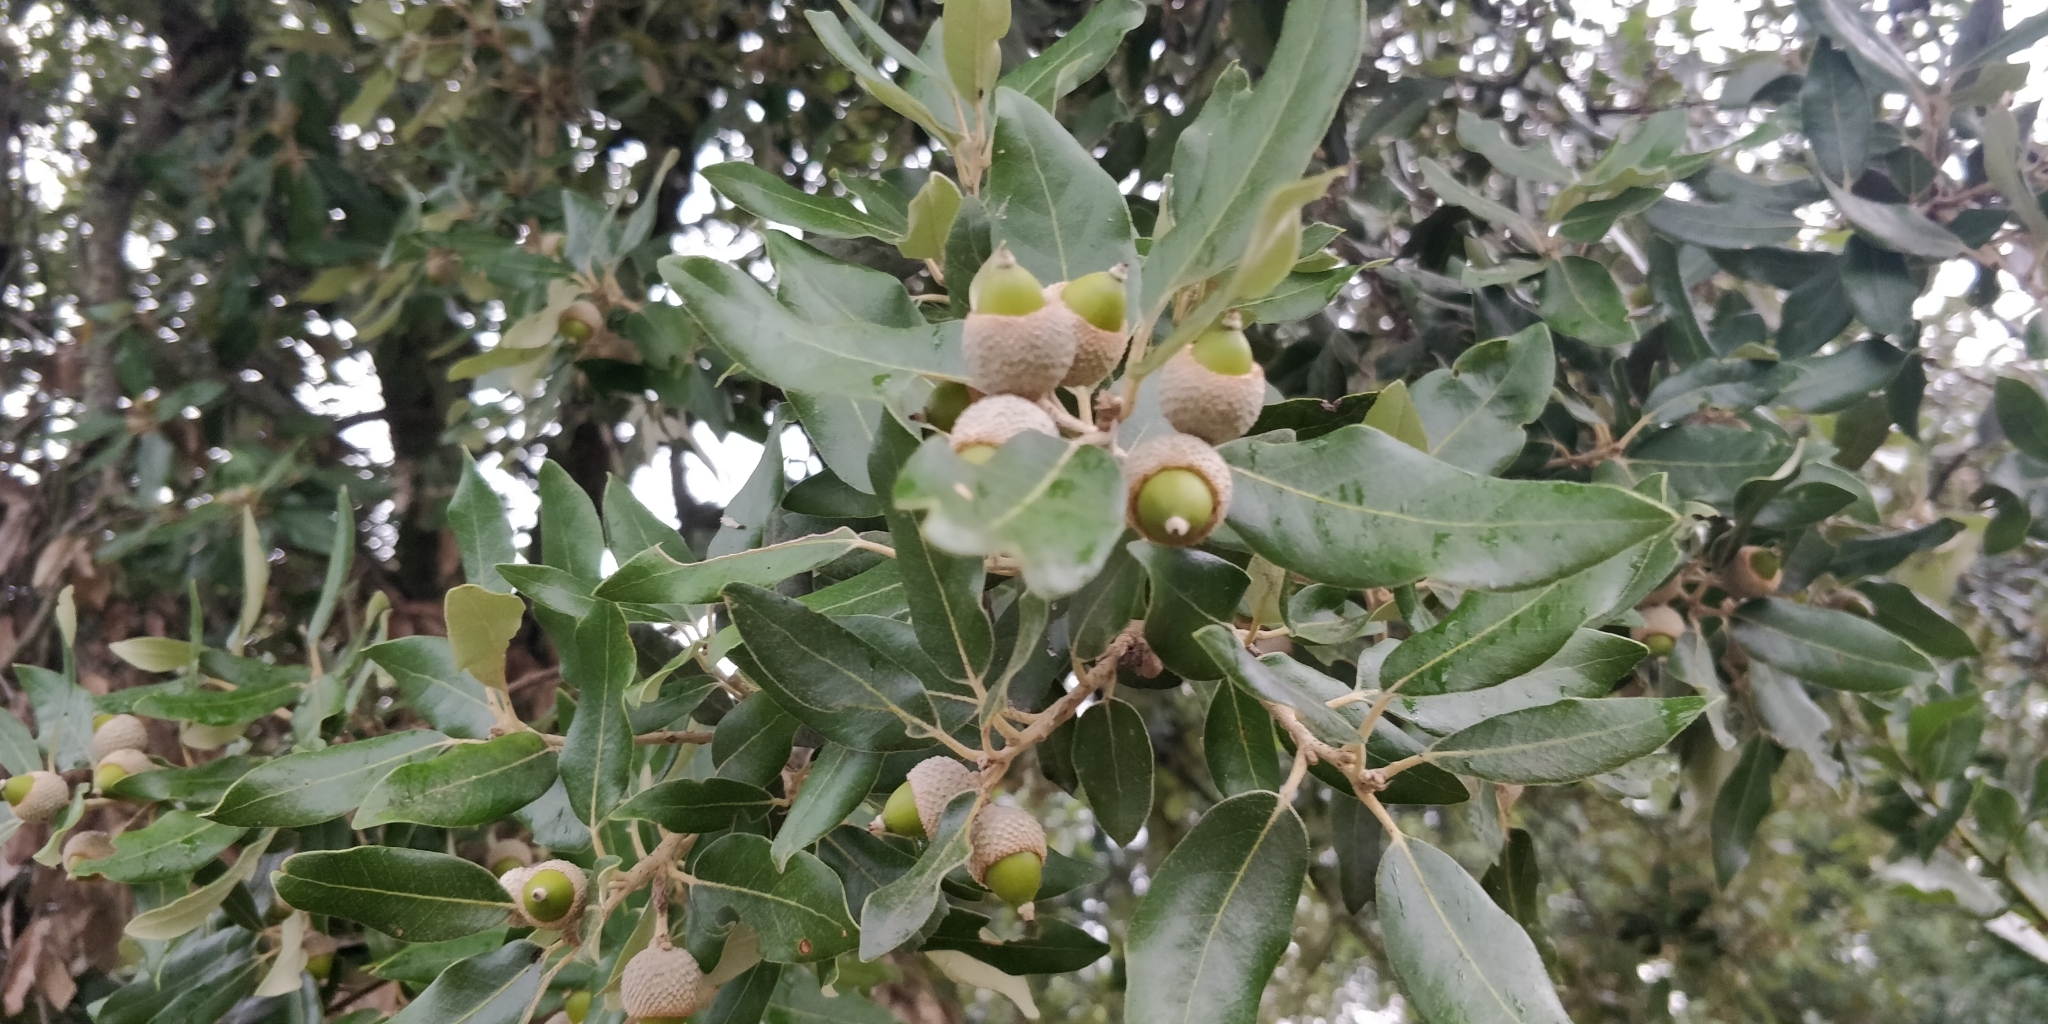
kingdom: Plantae
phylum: Tracheophyta
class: Magnoliopsida
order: Fagales
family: Fagaceae
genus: Quercus
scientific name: Quercus ilex
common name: Evergreen oak
